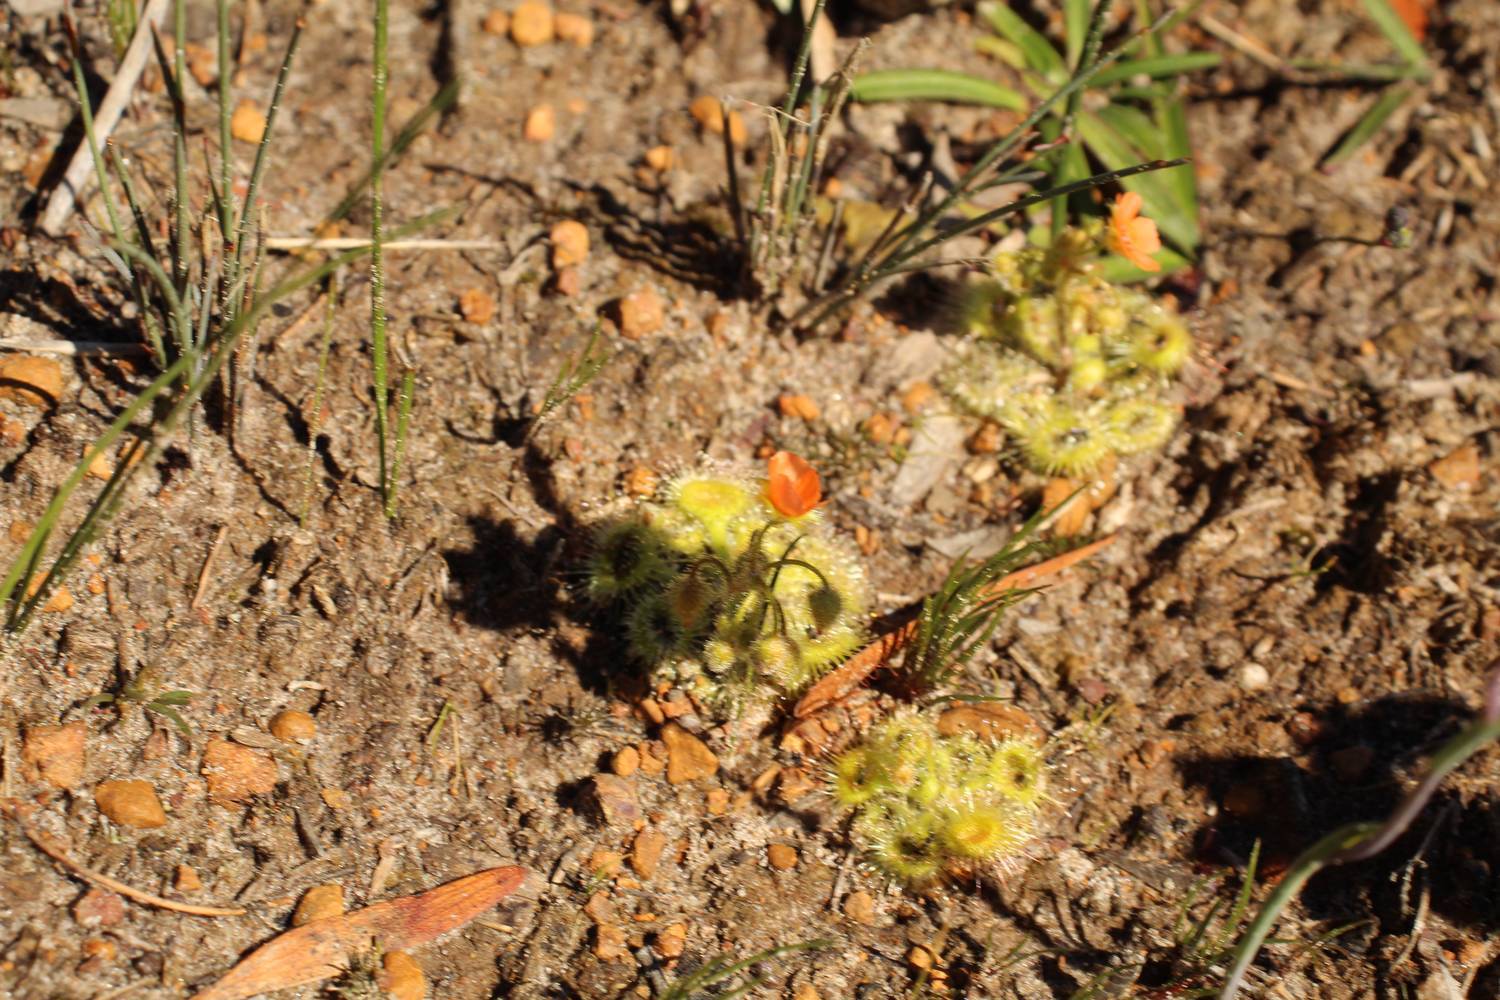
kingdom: Plantae
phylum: Tracheophyta
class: Magnoliopsida
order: Caryophyllales
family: Droseraceae
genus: Drosera
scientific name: Drosera glanduligera
